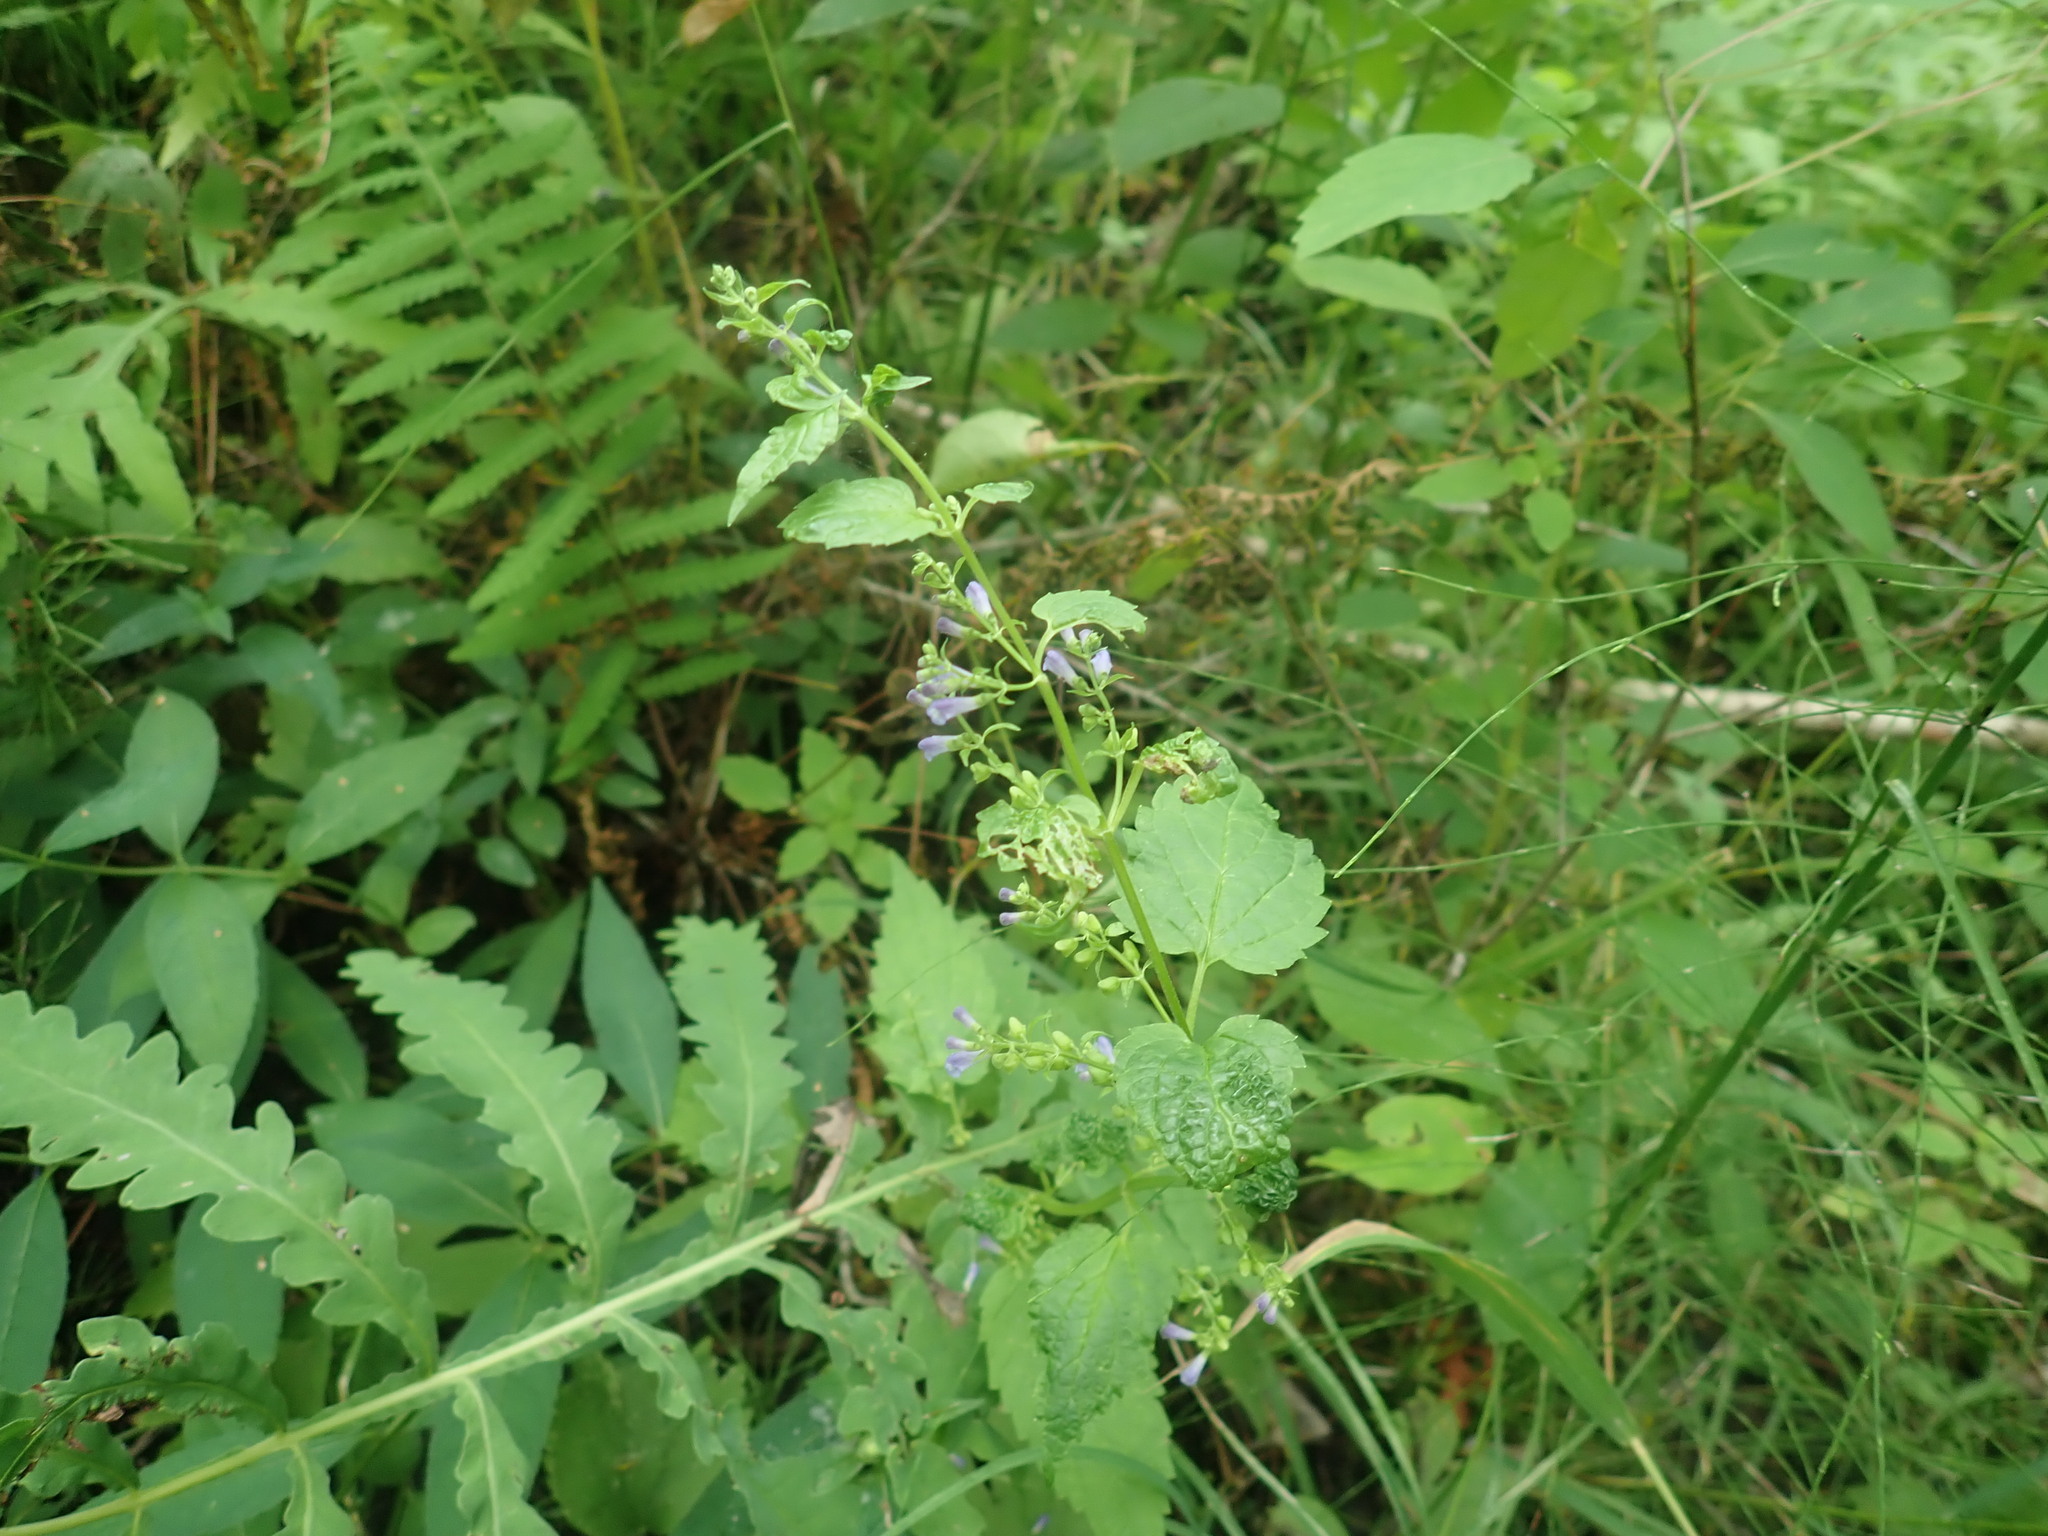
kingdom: Plantae
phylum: Tracheophyta
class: Magnoliopsida
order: Lamiales
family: Lamiaceae
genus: Scutellaria
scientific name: Scutellaria lateriflora
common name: Blue skullcap
